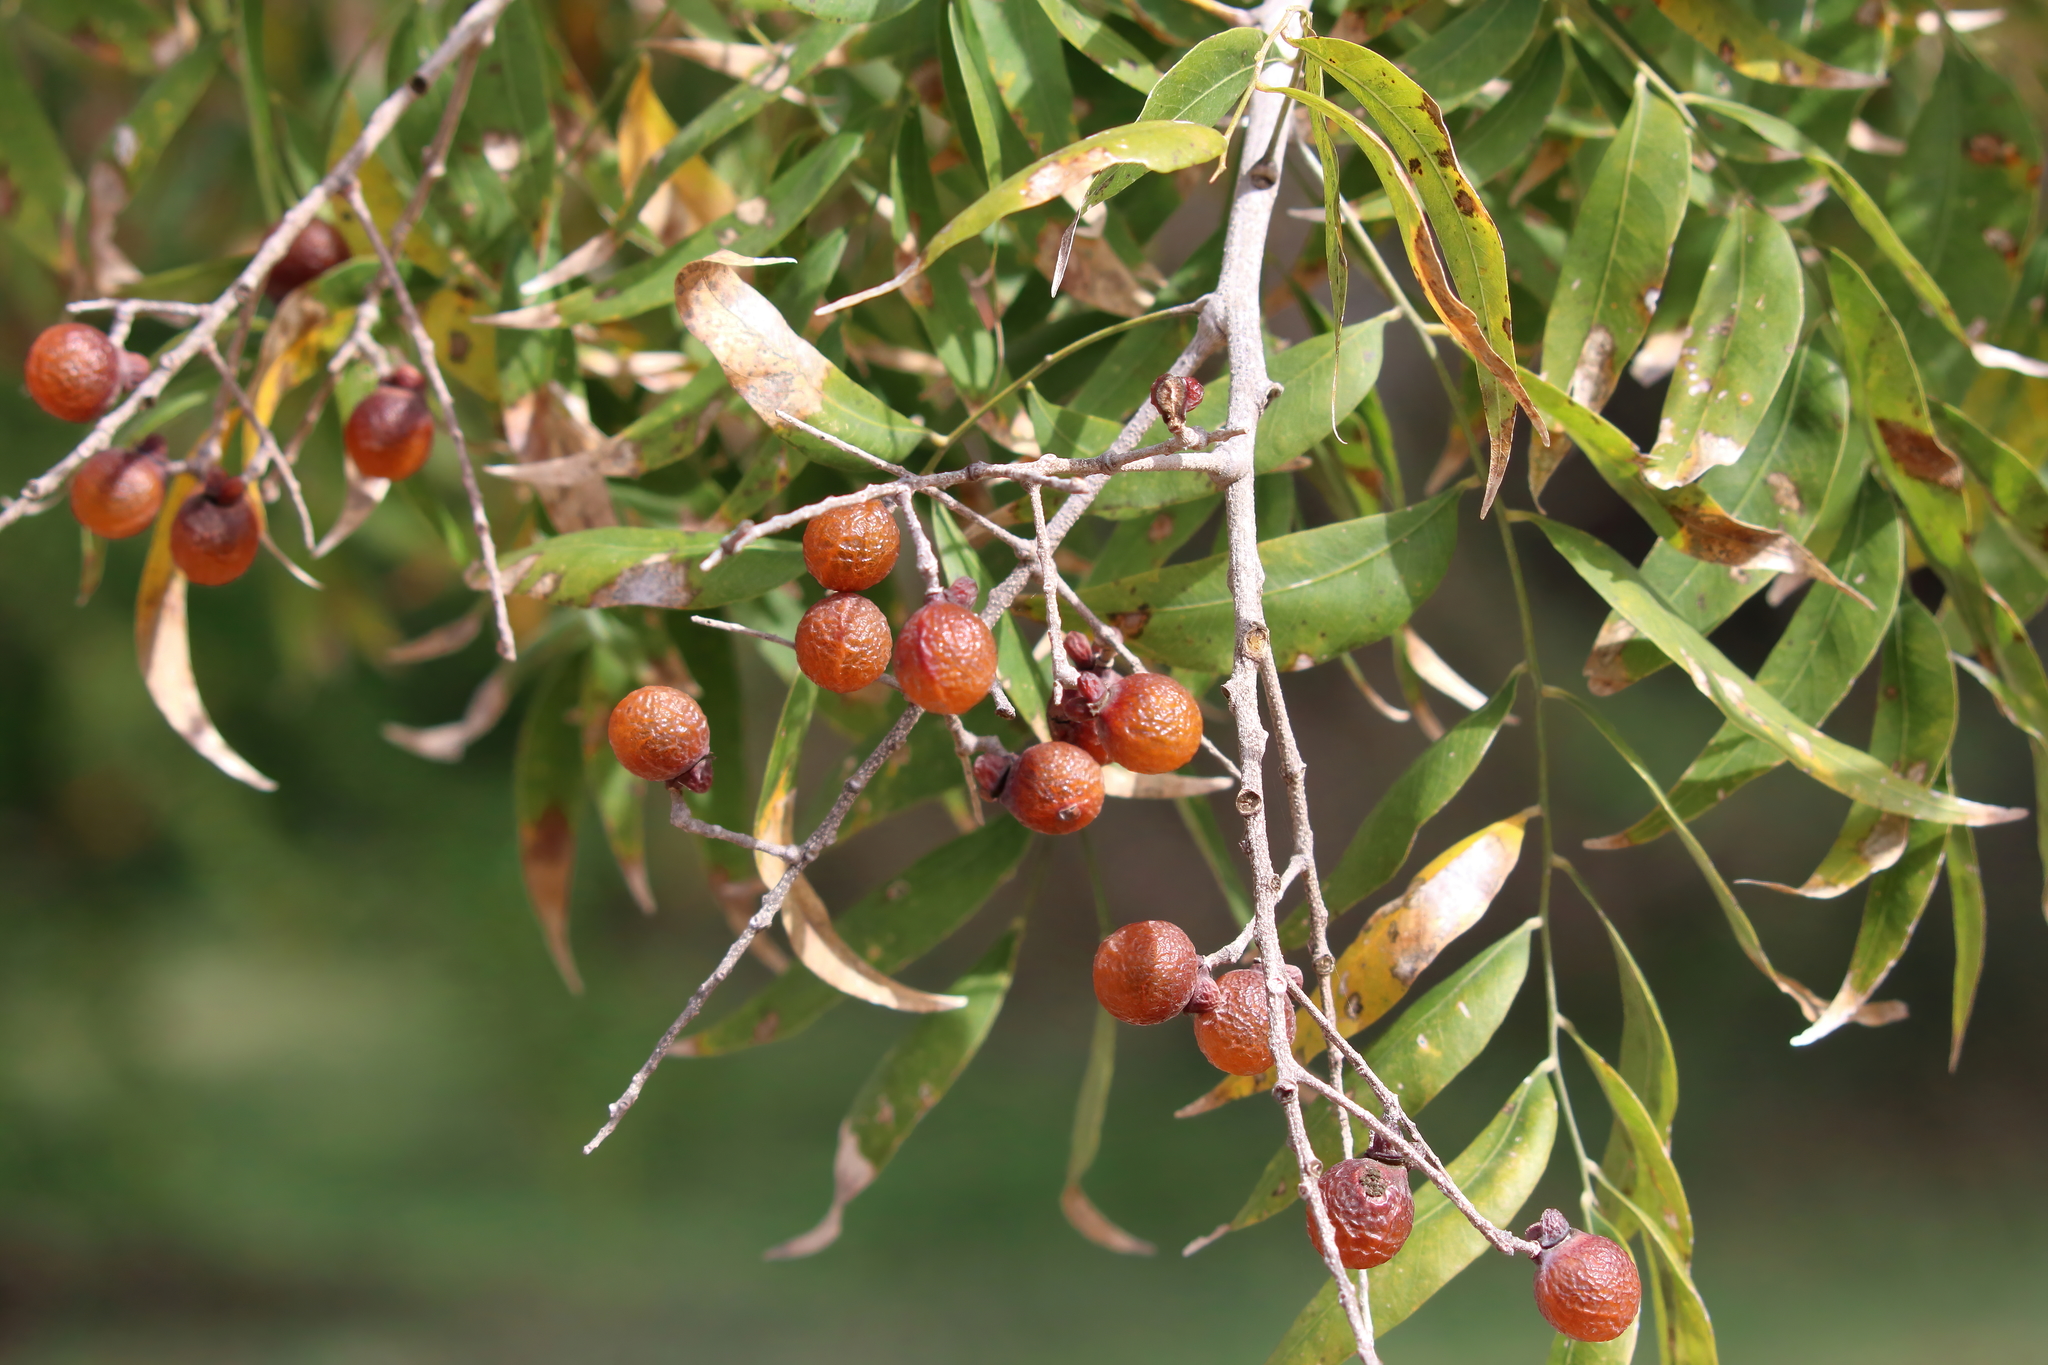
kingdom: Plantae
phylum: Tracheophyta
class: Magnoliopsida
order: Sapindales
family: Sapindaceae
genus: Sapindus
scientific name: Sapindus drummondii
